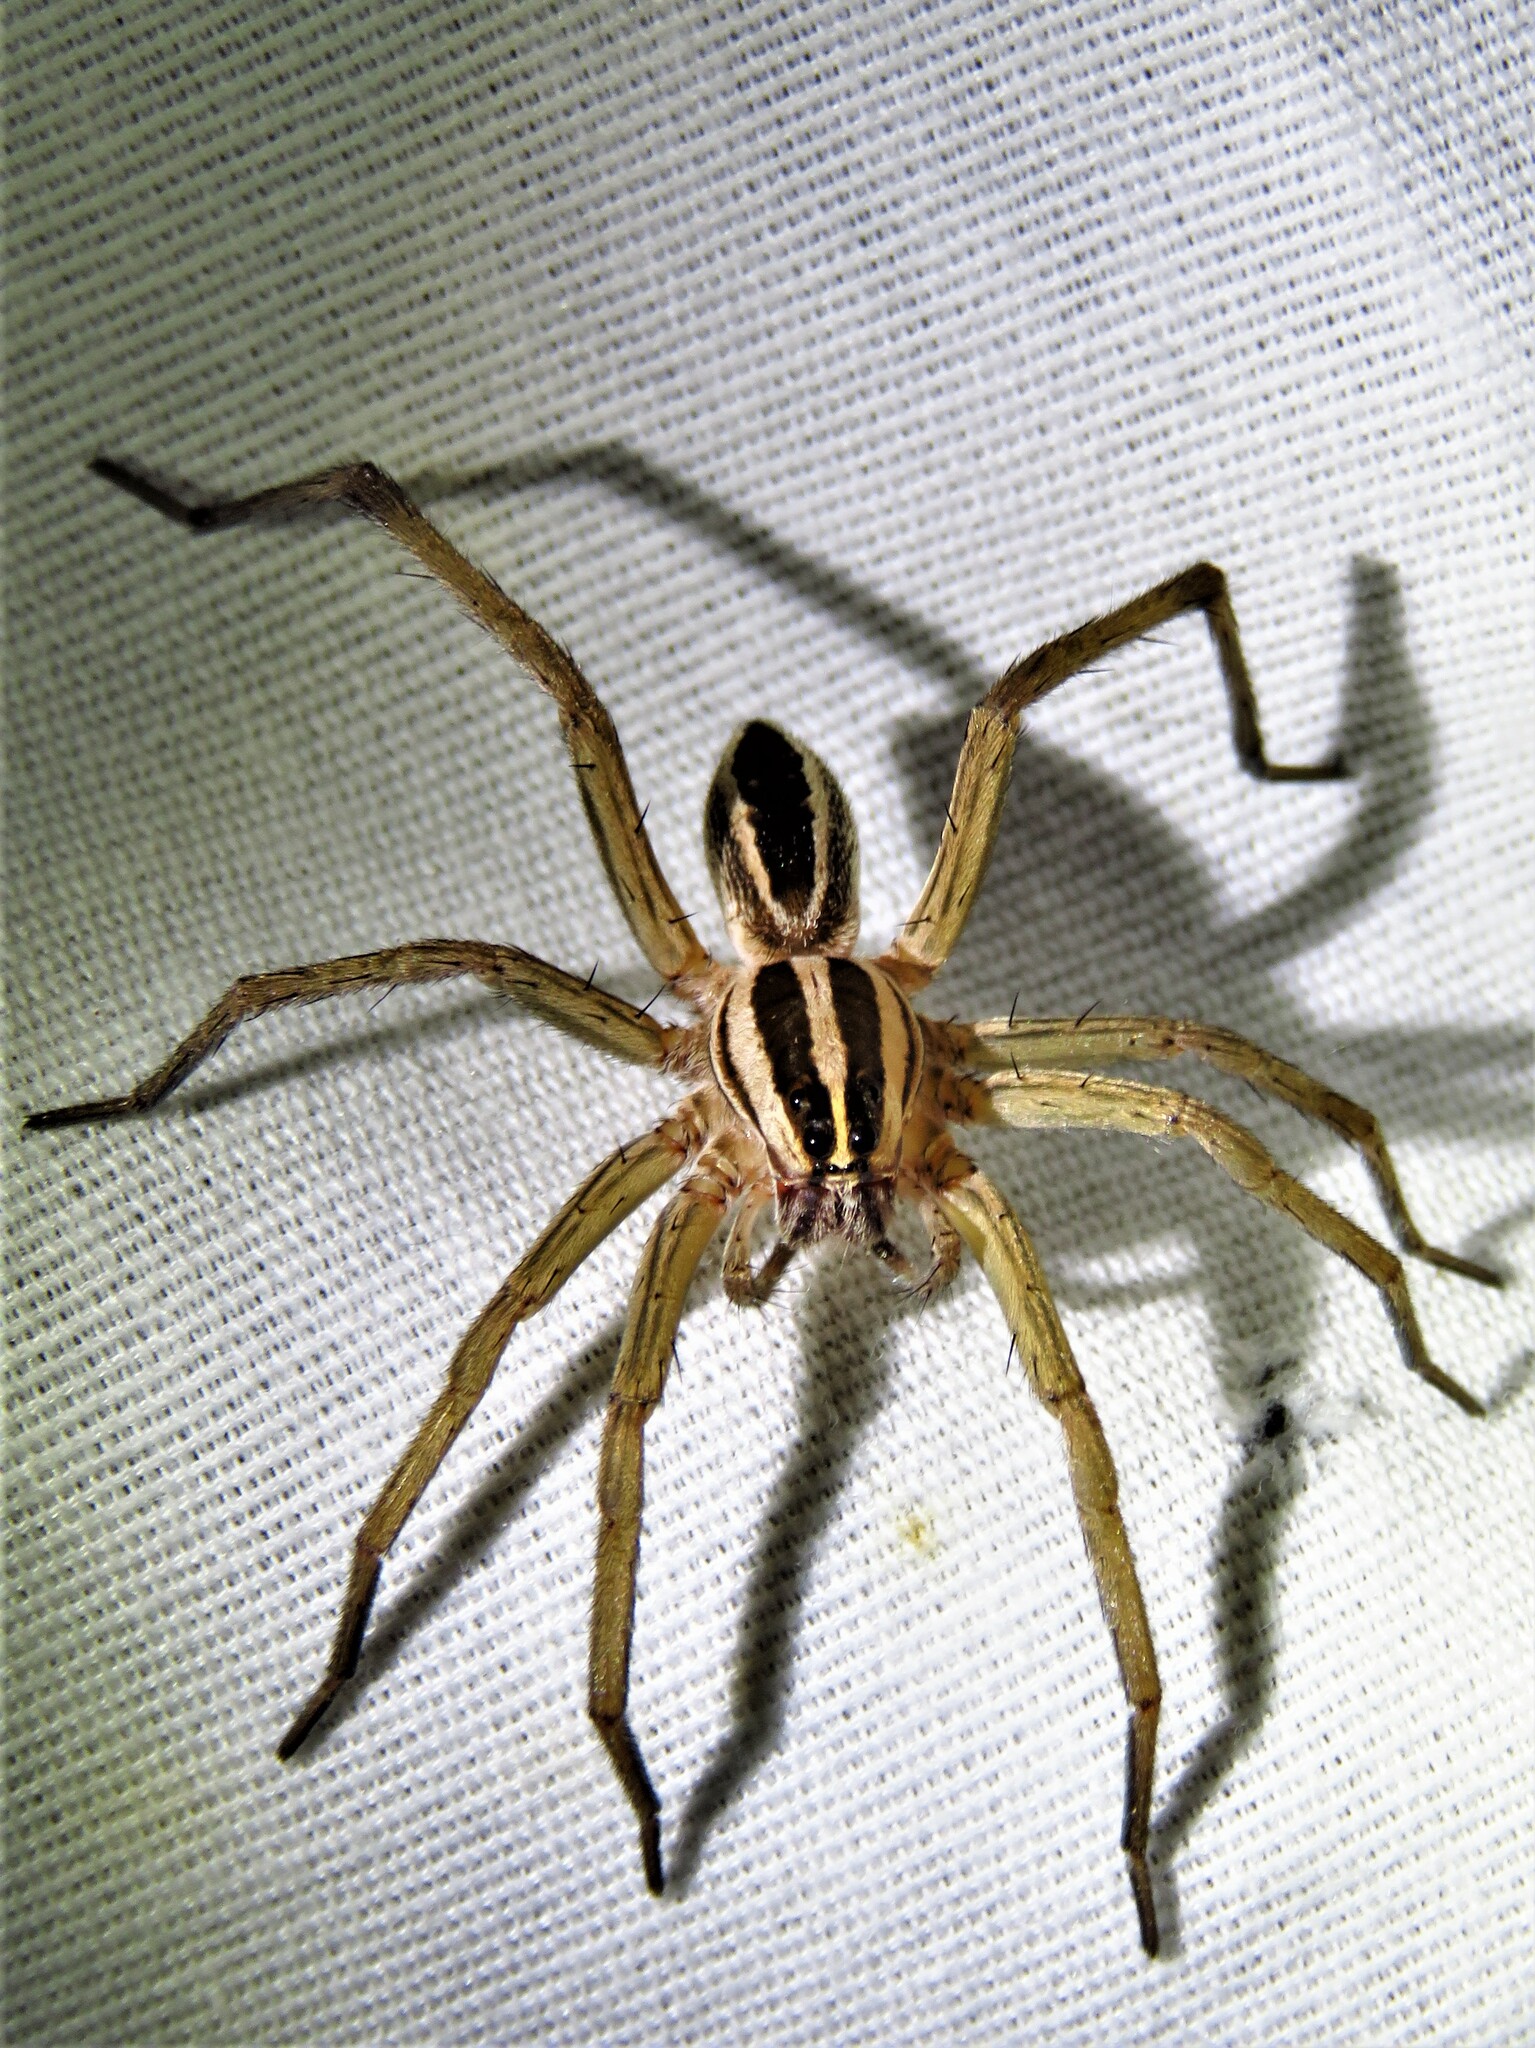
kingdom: Animalia
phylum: Arthropoda
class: Arachnida
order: Araneae
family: Lycosidae
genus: Rabidosa
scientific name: Rabidosa rabida
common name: Rabid wolf spider
